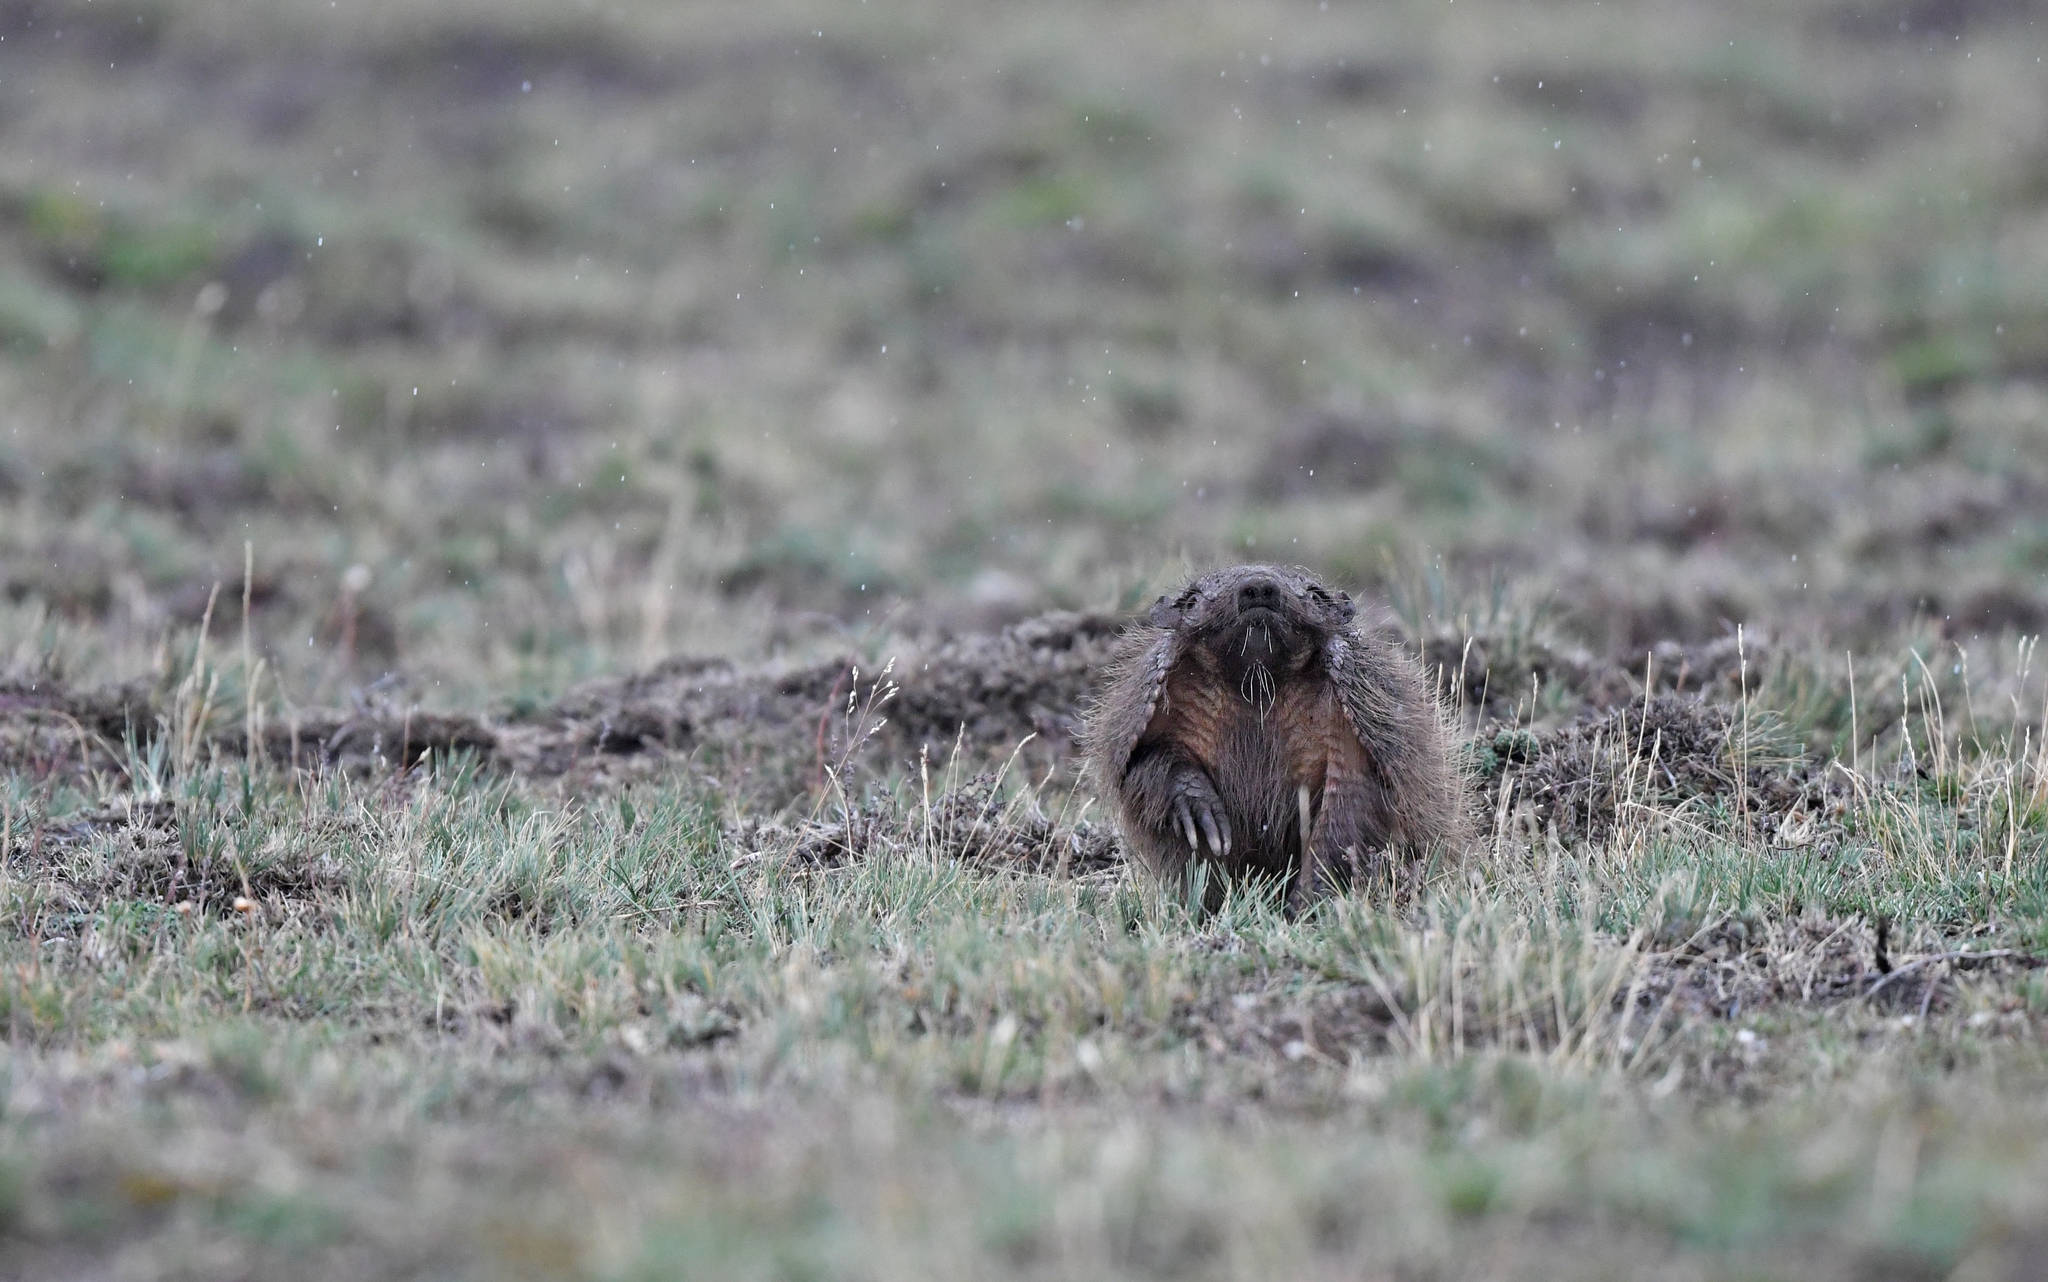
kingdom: Animalia
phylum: Chordata
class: Mammalia
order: Cingulata
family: Dasypodidae
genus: Chaetophractus
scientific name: Chaetophractus villosus
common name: Big hairy armadillo
